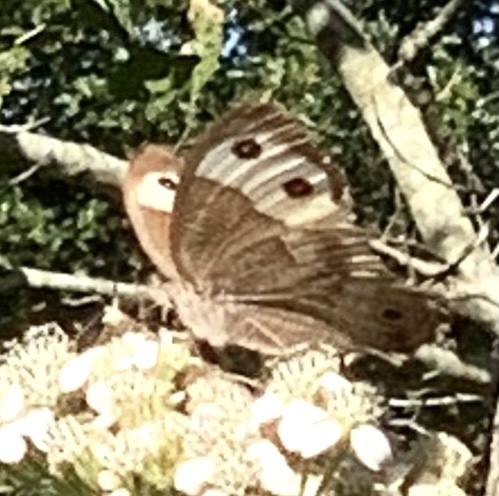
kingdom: Animalia
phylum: Arthropoda
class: Insecta
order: Lepidoptera
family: Nymphalidae
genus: Cercyonis
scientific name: Cercyonis pegala
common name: Common wood-nymph
